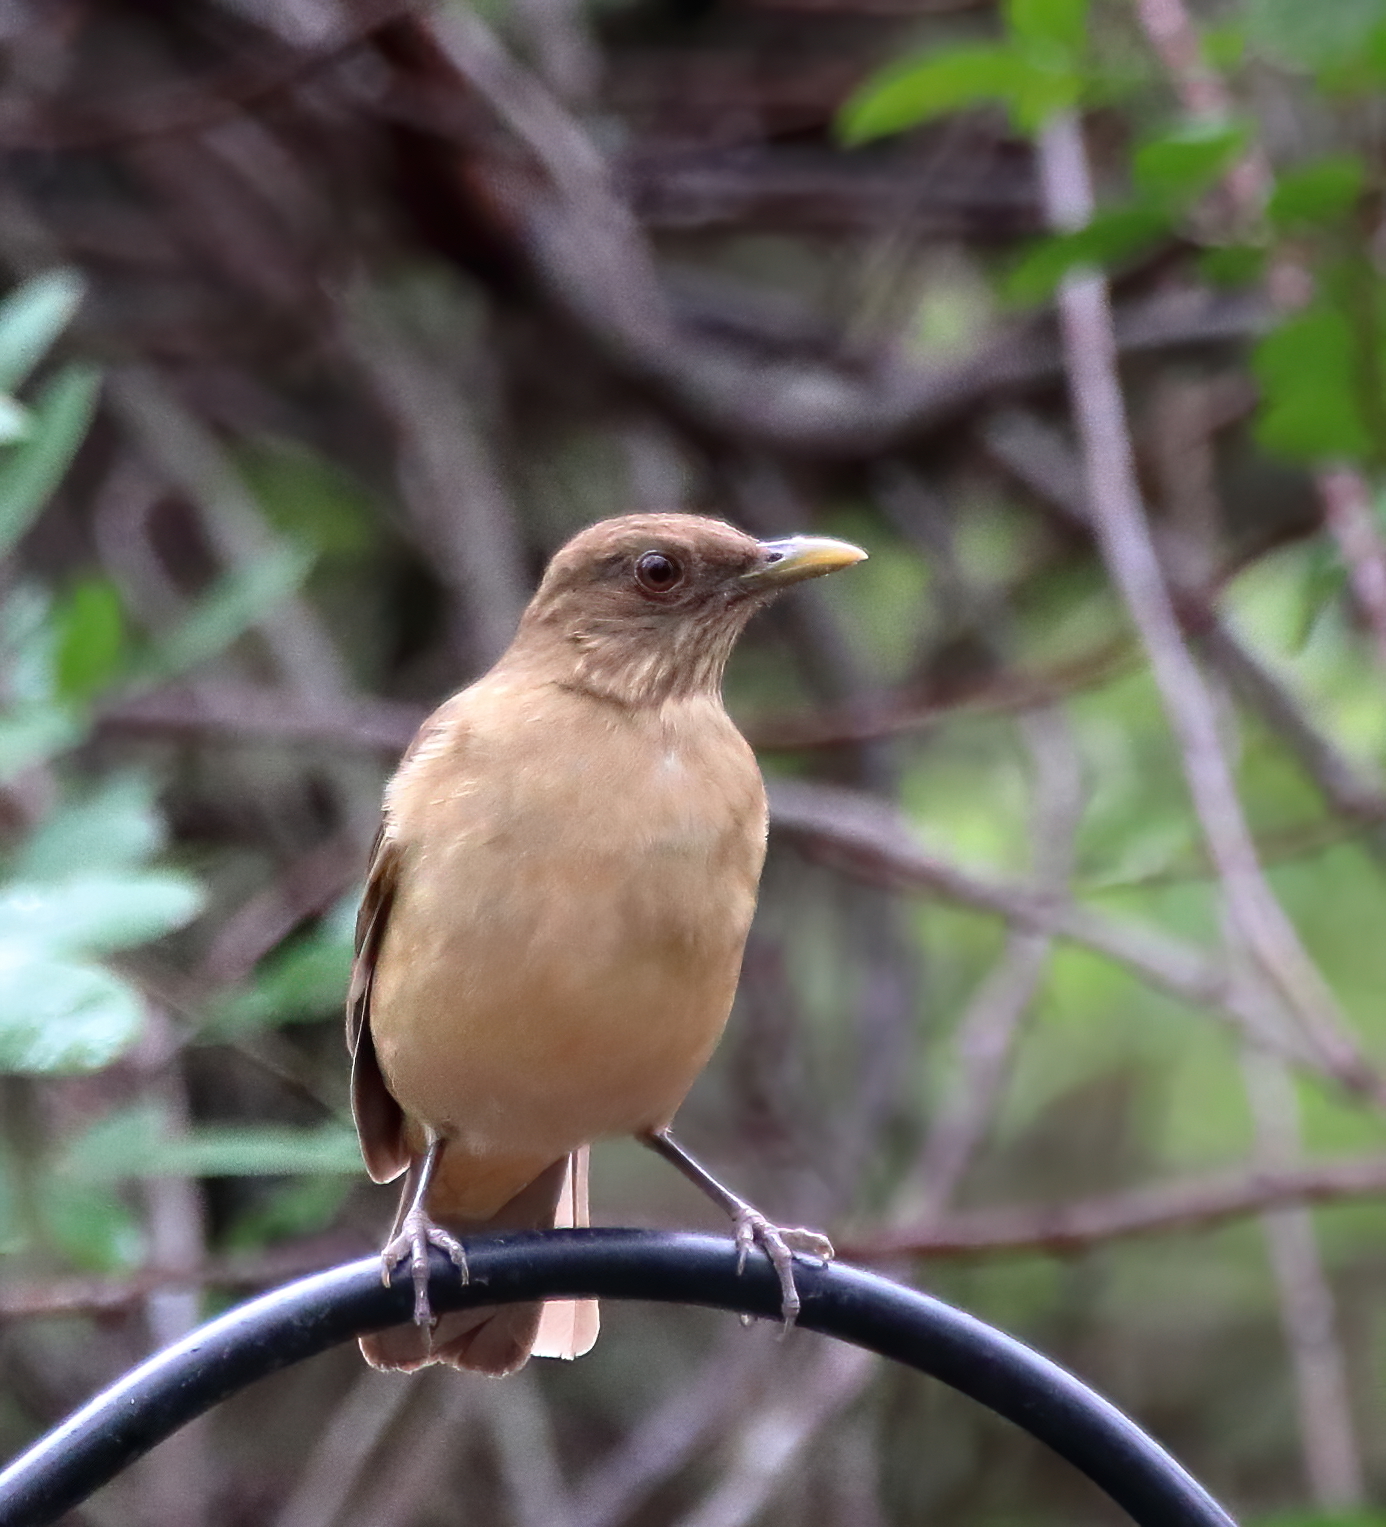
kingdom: Animalia
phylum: Chordata
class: Aves
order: Passeriformes
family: Turdidae
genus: Turdus
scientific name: Turdus grayi
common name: Clay-colored thrush
